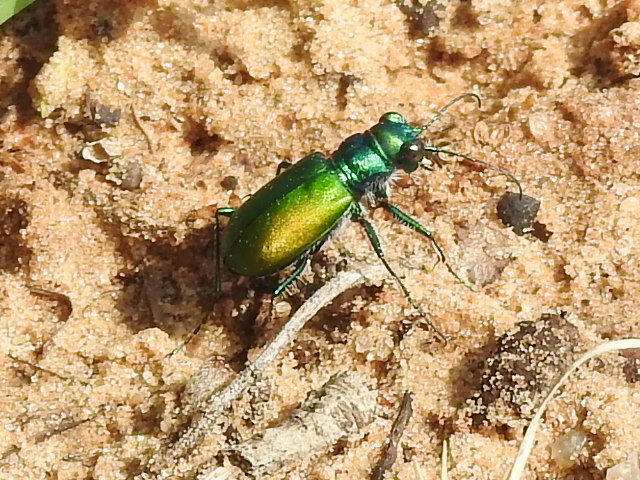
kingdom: Animalia
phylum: Arthropoda
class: Insecta
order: Coleoptera
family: Carabidae
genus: Cicindela
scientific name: Cicindela scutellaris
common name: Festive tiger beetle
